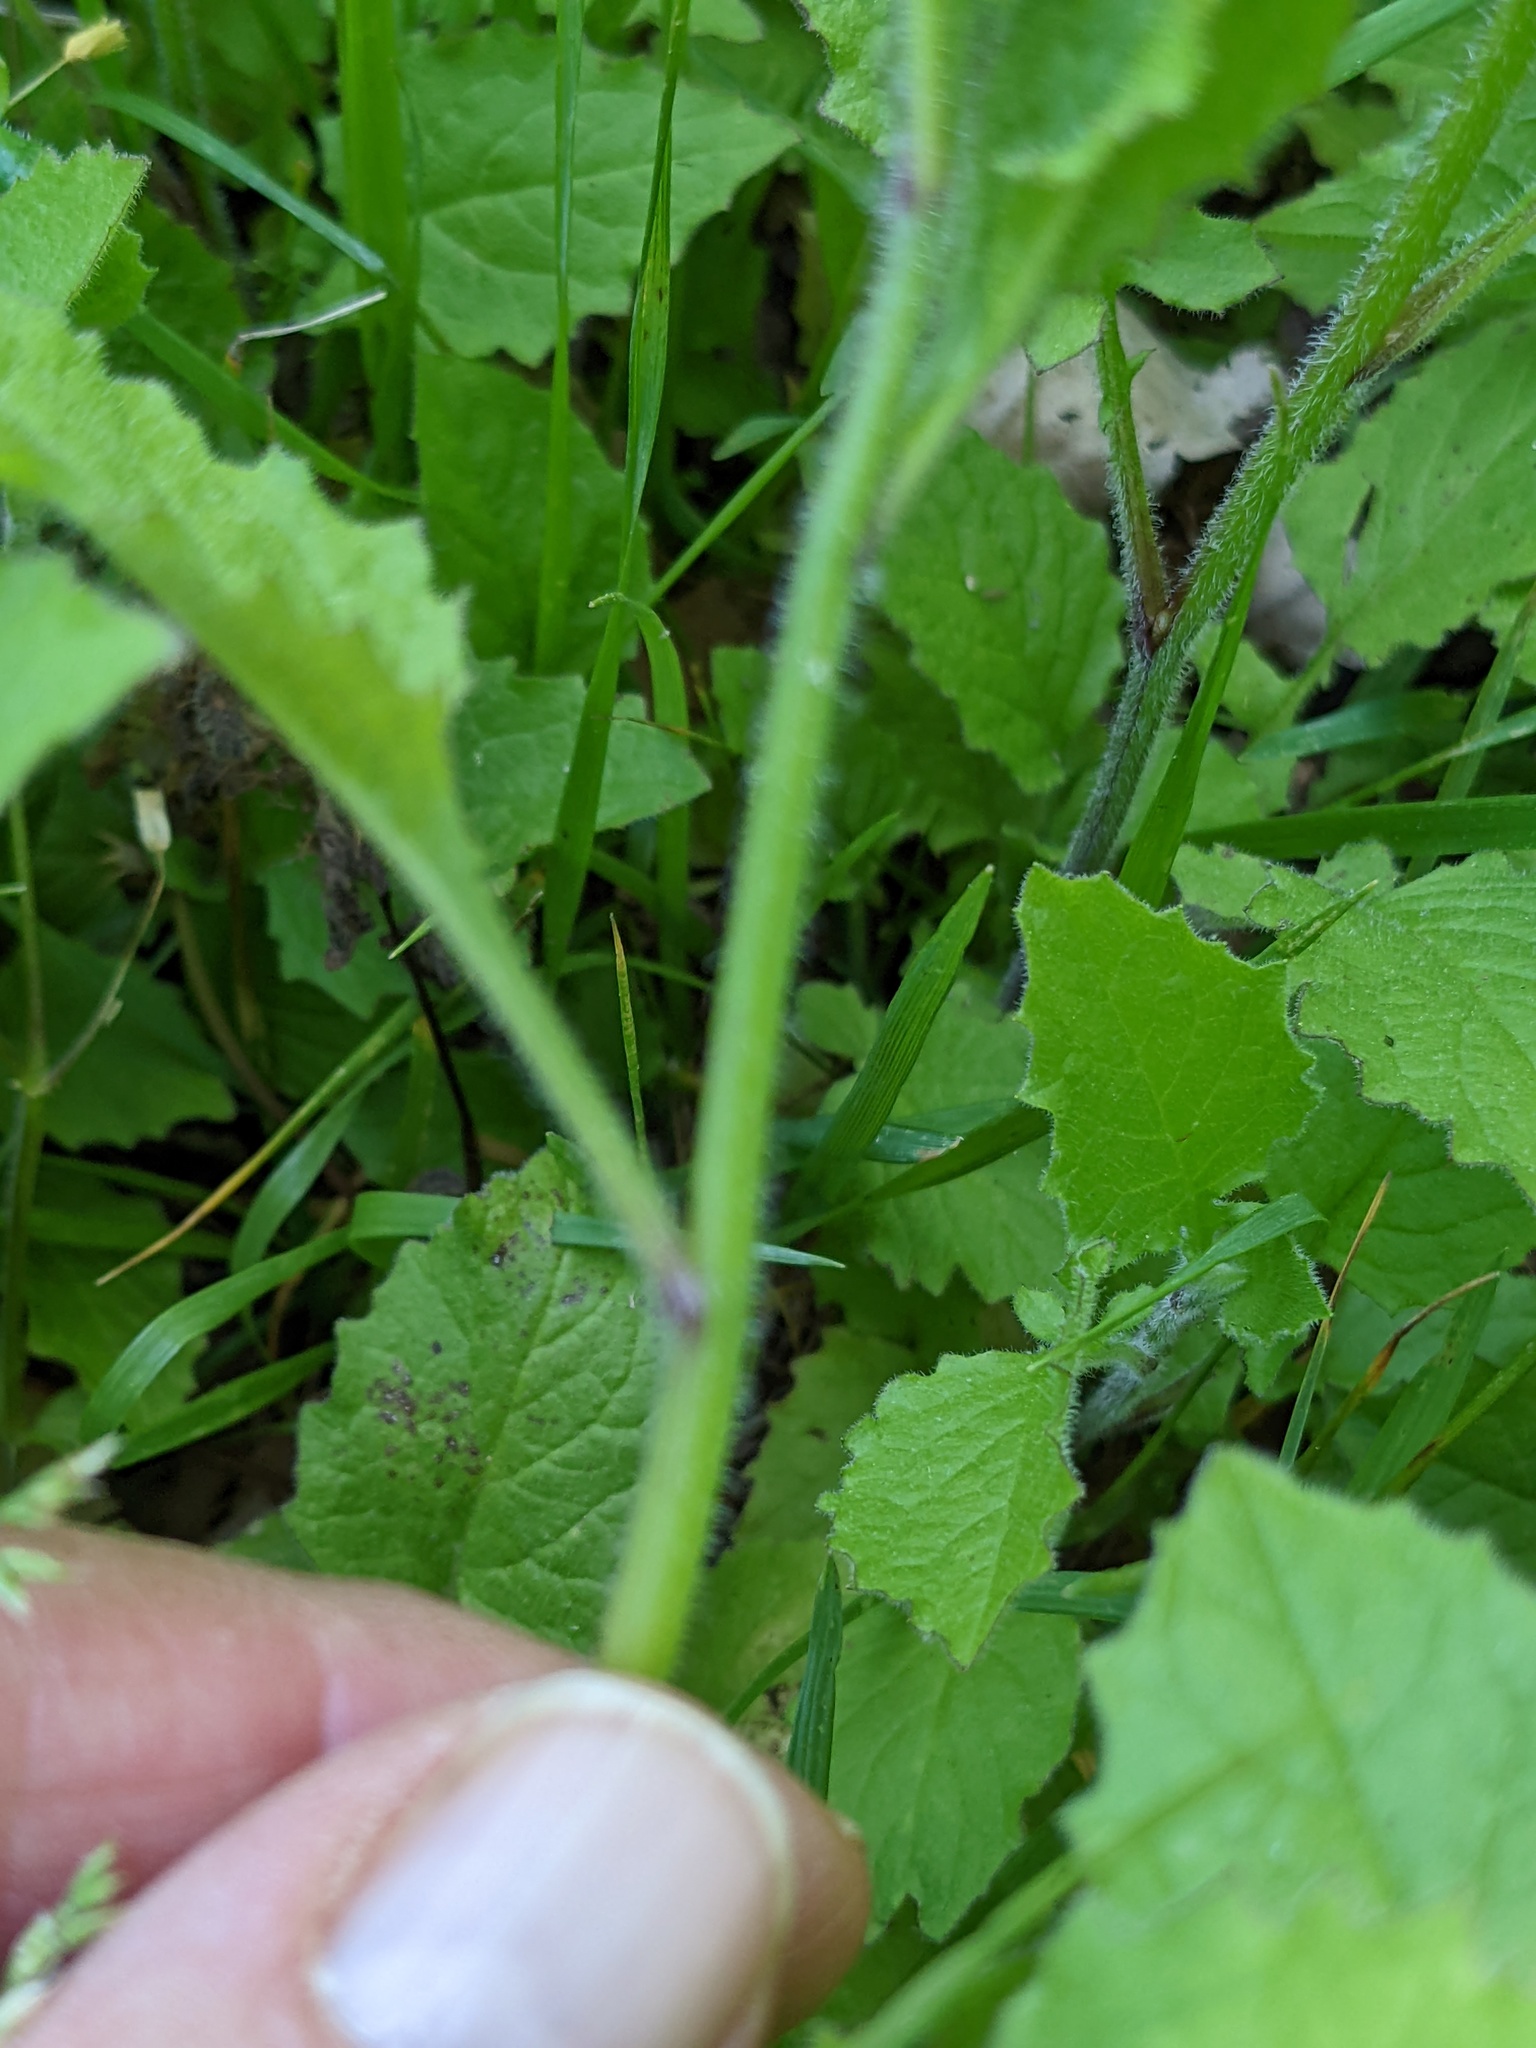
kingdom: Plantae
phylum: Tracheophyta
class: Magnoliopsida
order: Asterales
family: Asteraceae
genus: Lapsana
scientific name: Lapsana communis
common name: Nipplewort
